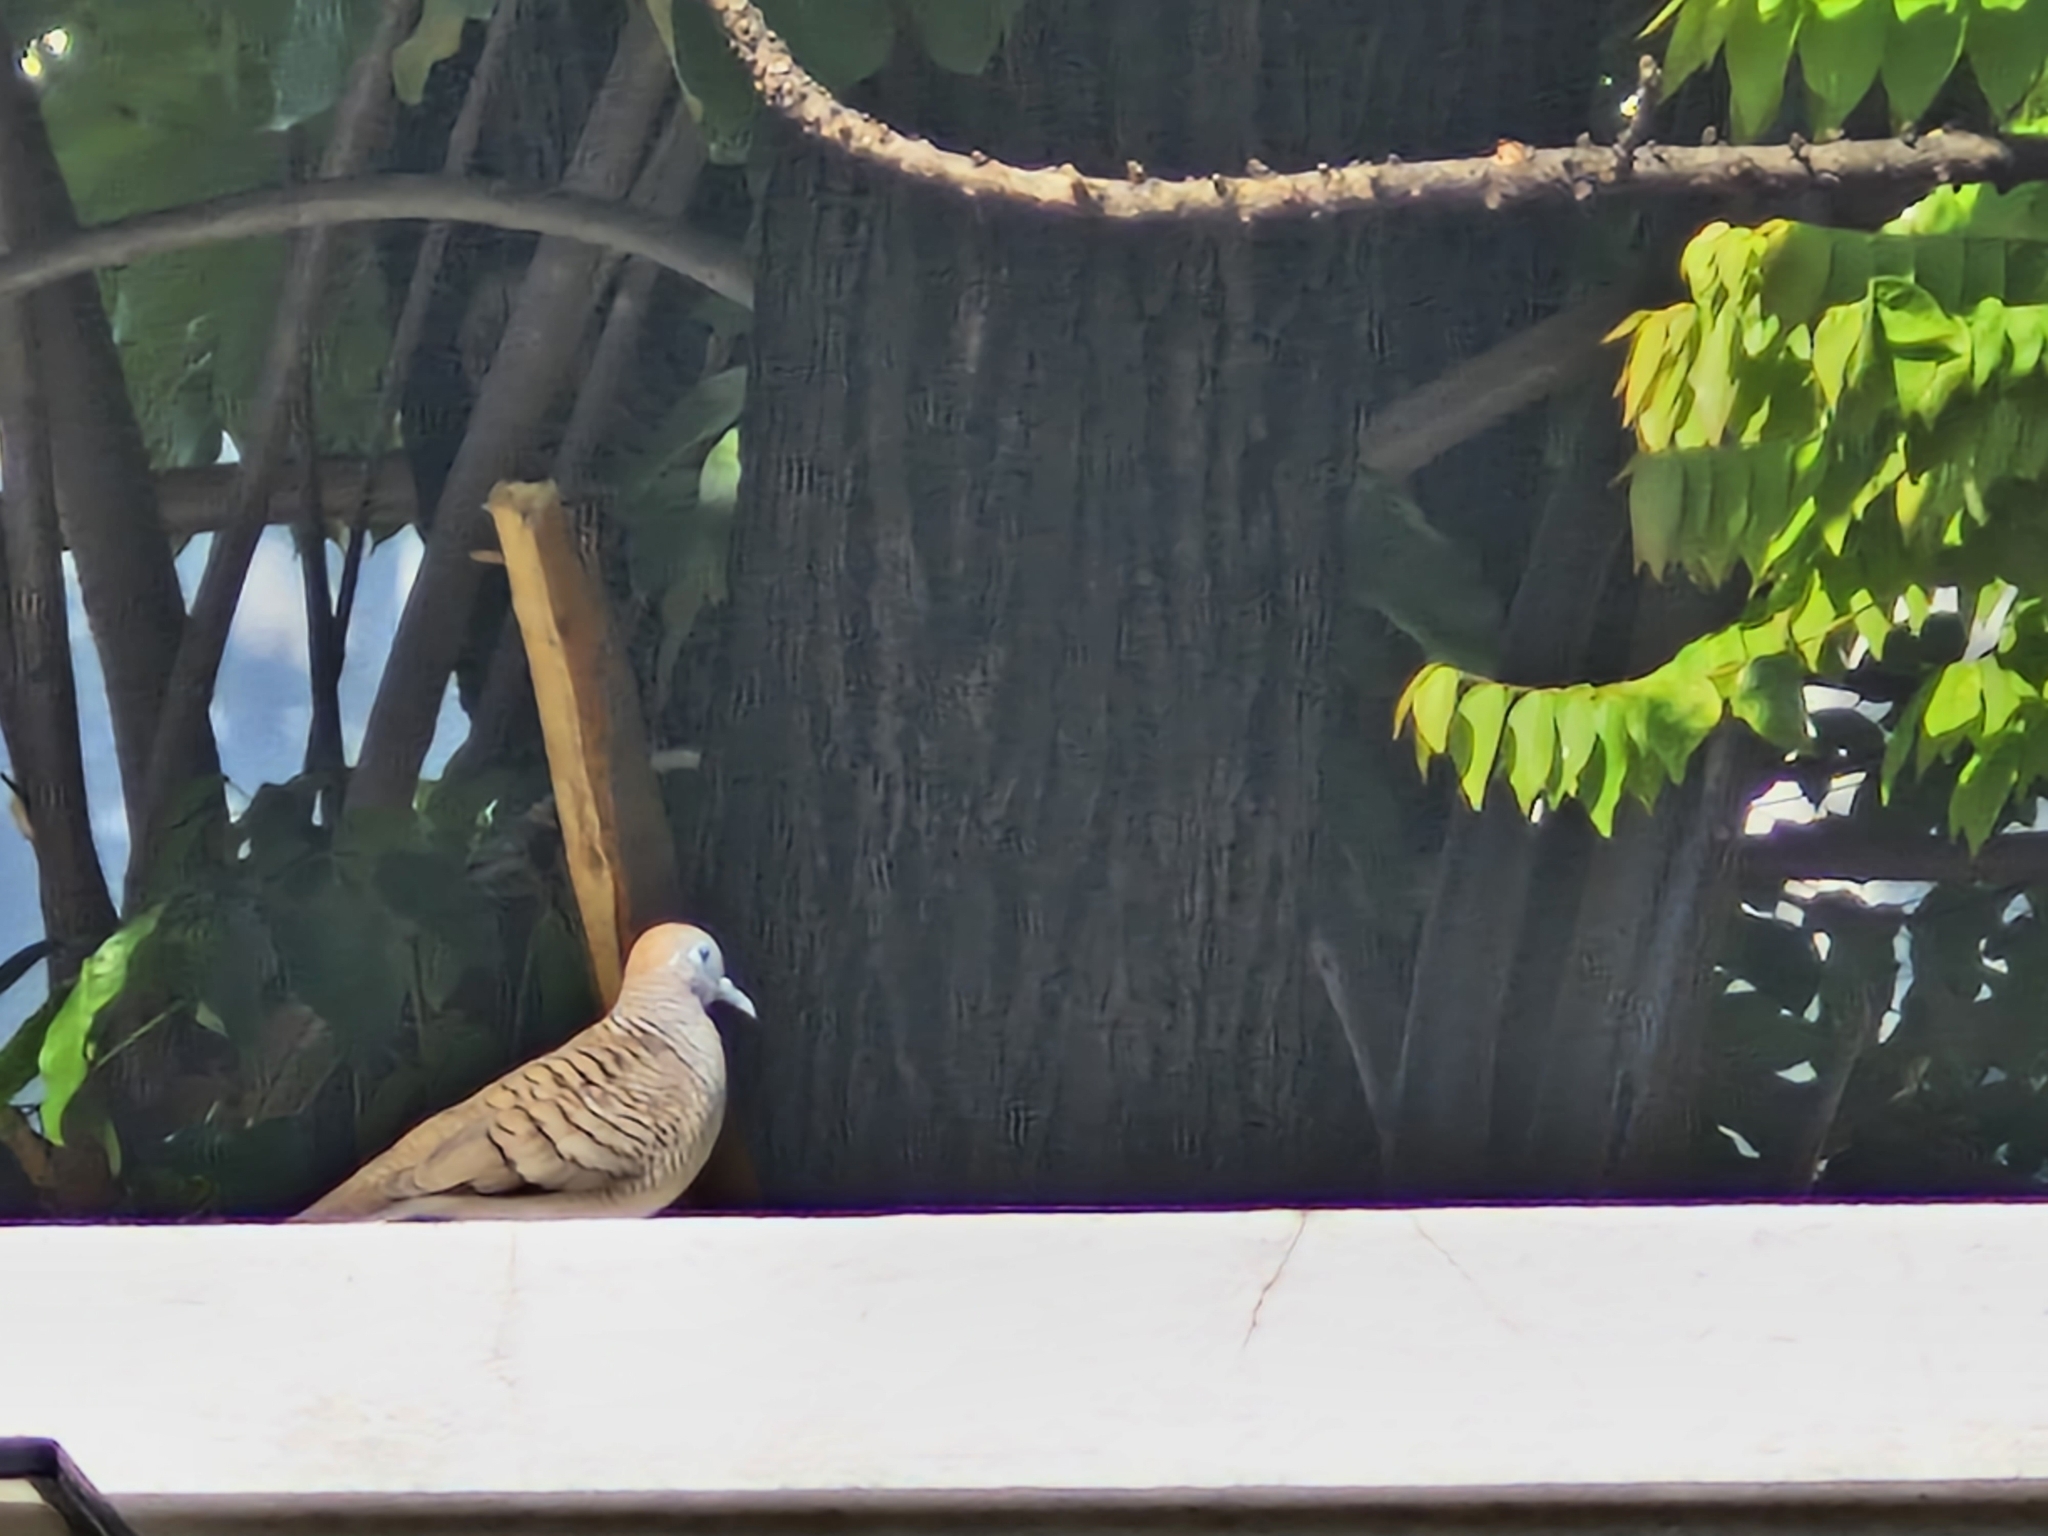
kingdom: Animalia
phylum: Chordata
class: Aves
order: Columbiformes
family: Columbidae
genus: Geopelia
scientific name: Geopelia striata
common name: Zebra dove
